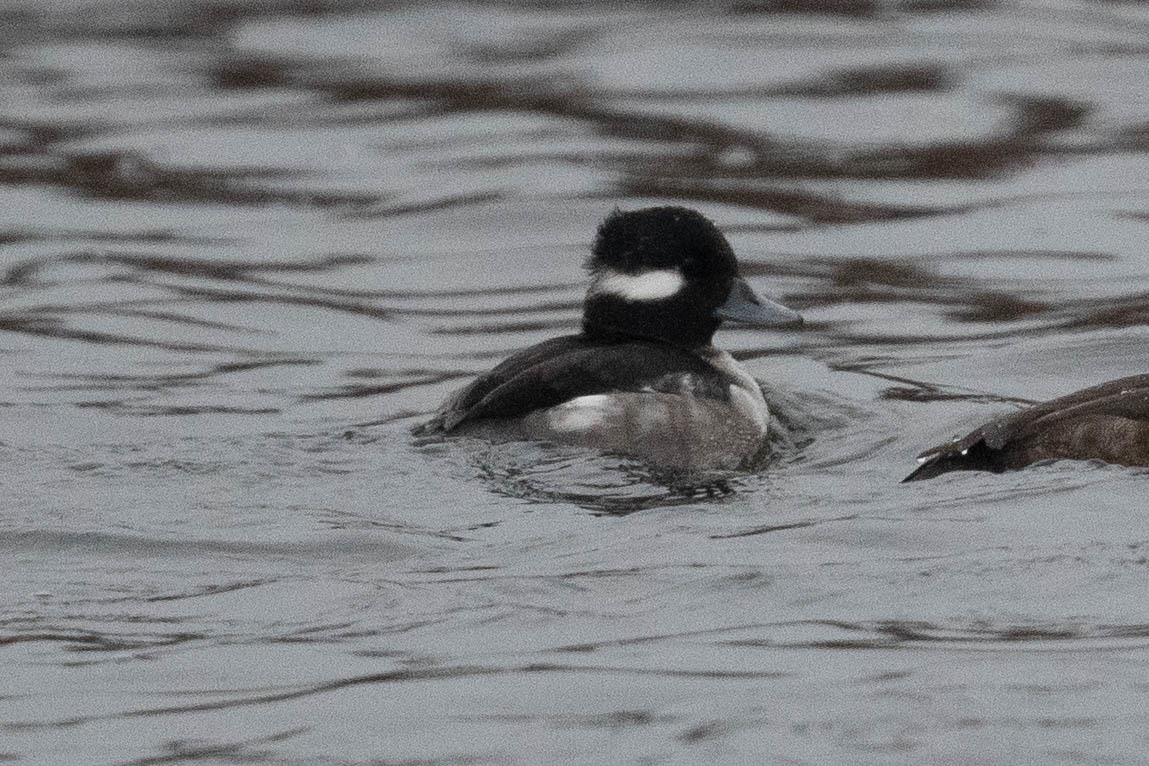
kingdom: Animalia
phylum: Chordata
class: Aves
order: Anseriformes
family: Anatidae
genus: Bucephala
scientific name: Bucephala albeola
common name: Bufflehead
